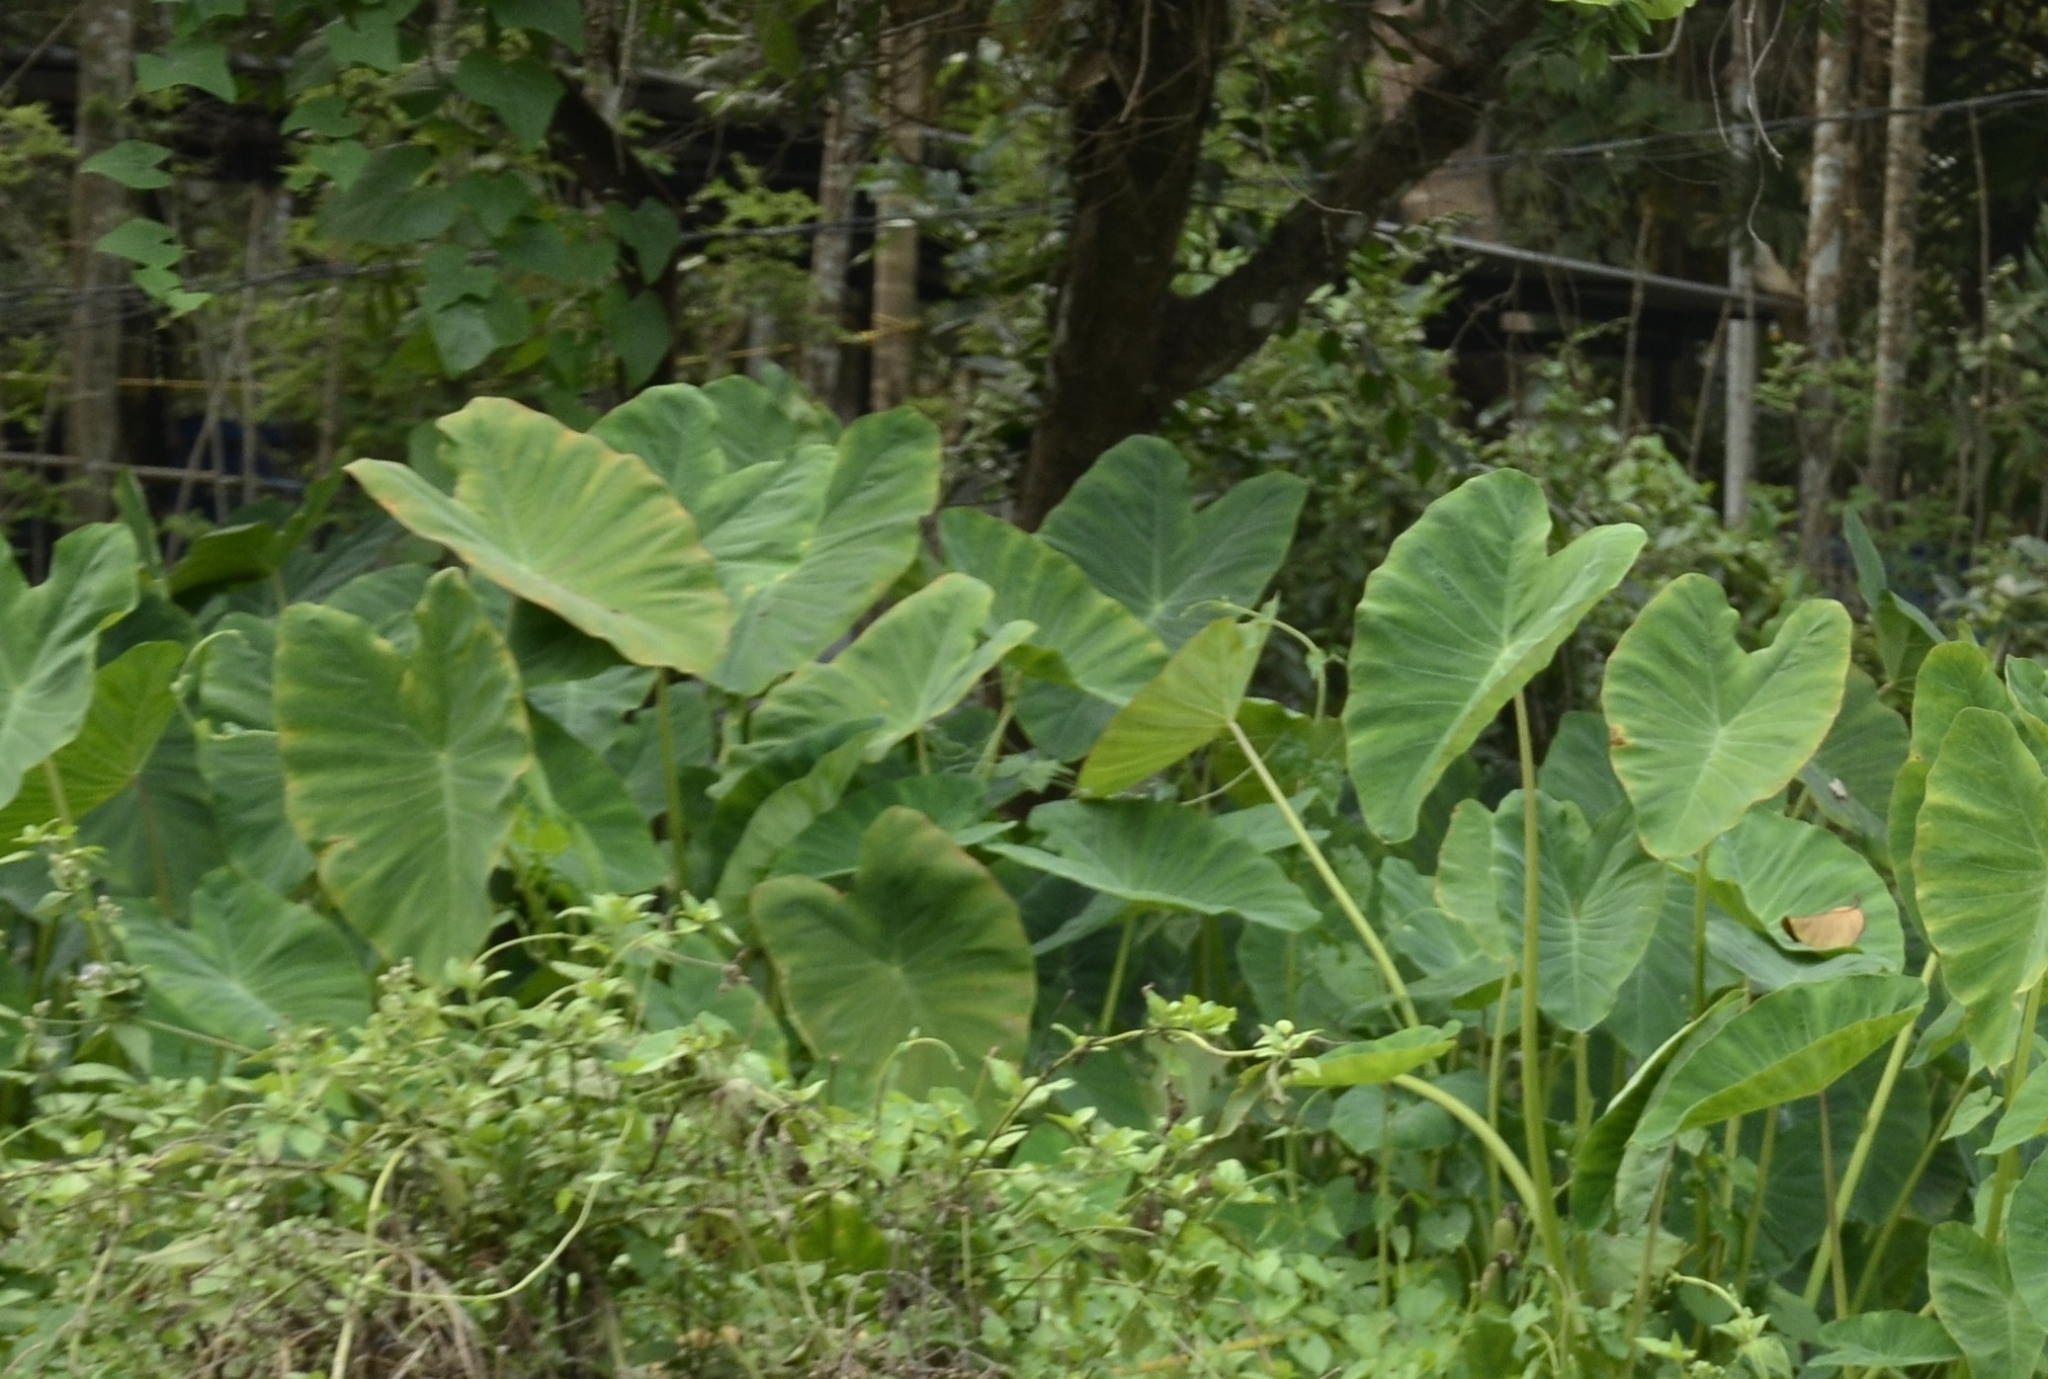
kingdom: Plantae
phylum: Tracheophyta
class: Liliopsida
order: Alismatales
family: Araceae
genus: Colocasia
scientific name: Colocasia esculenta
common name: Taro
